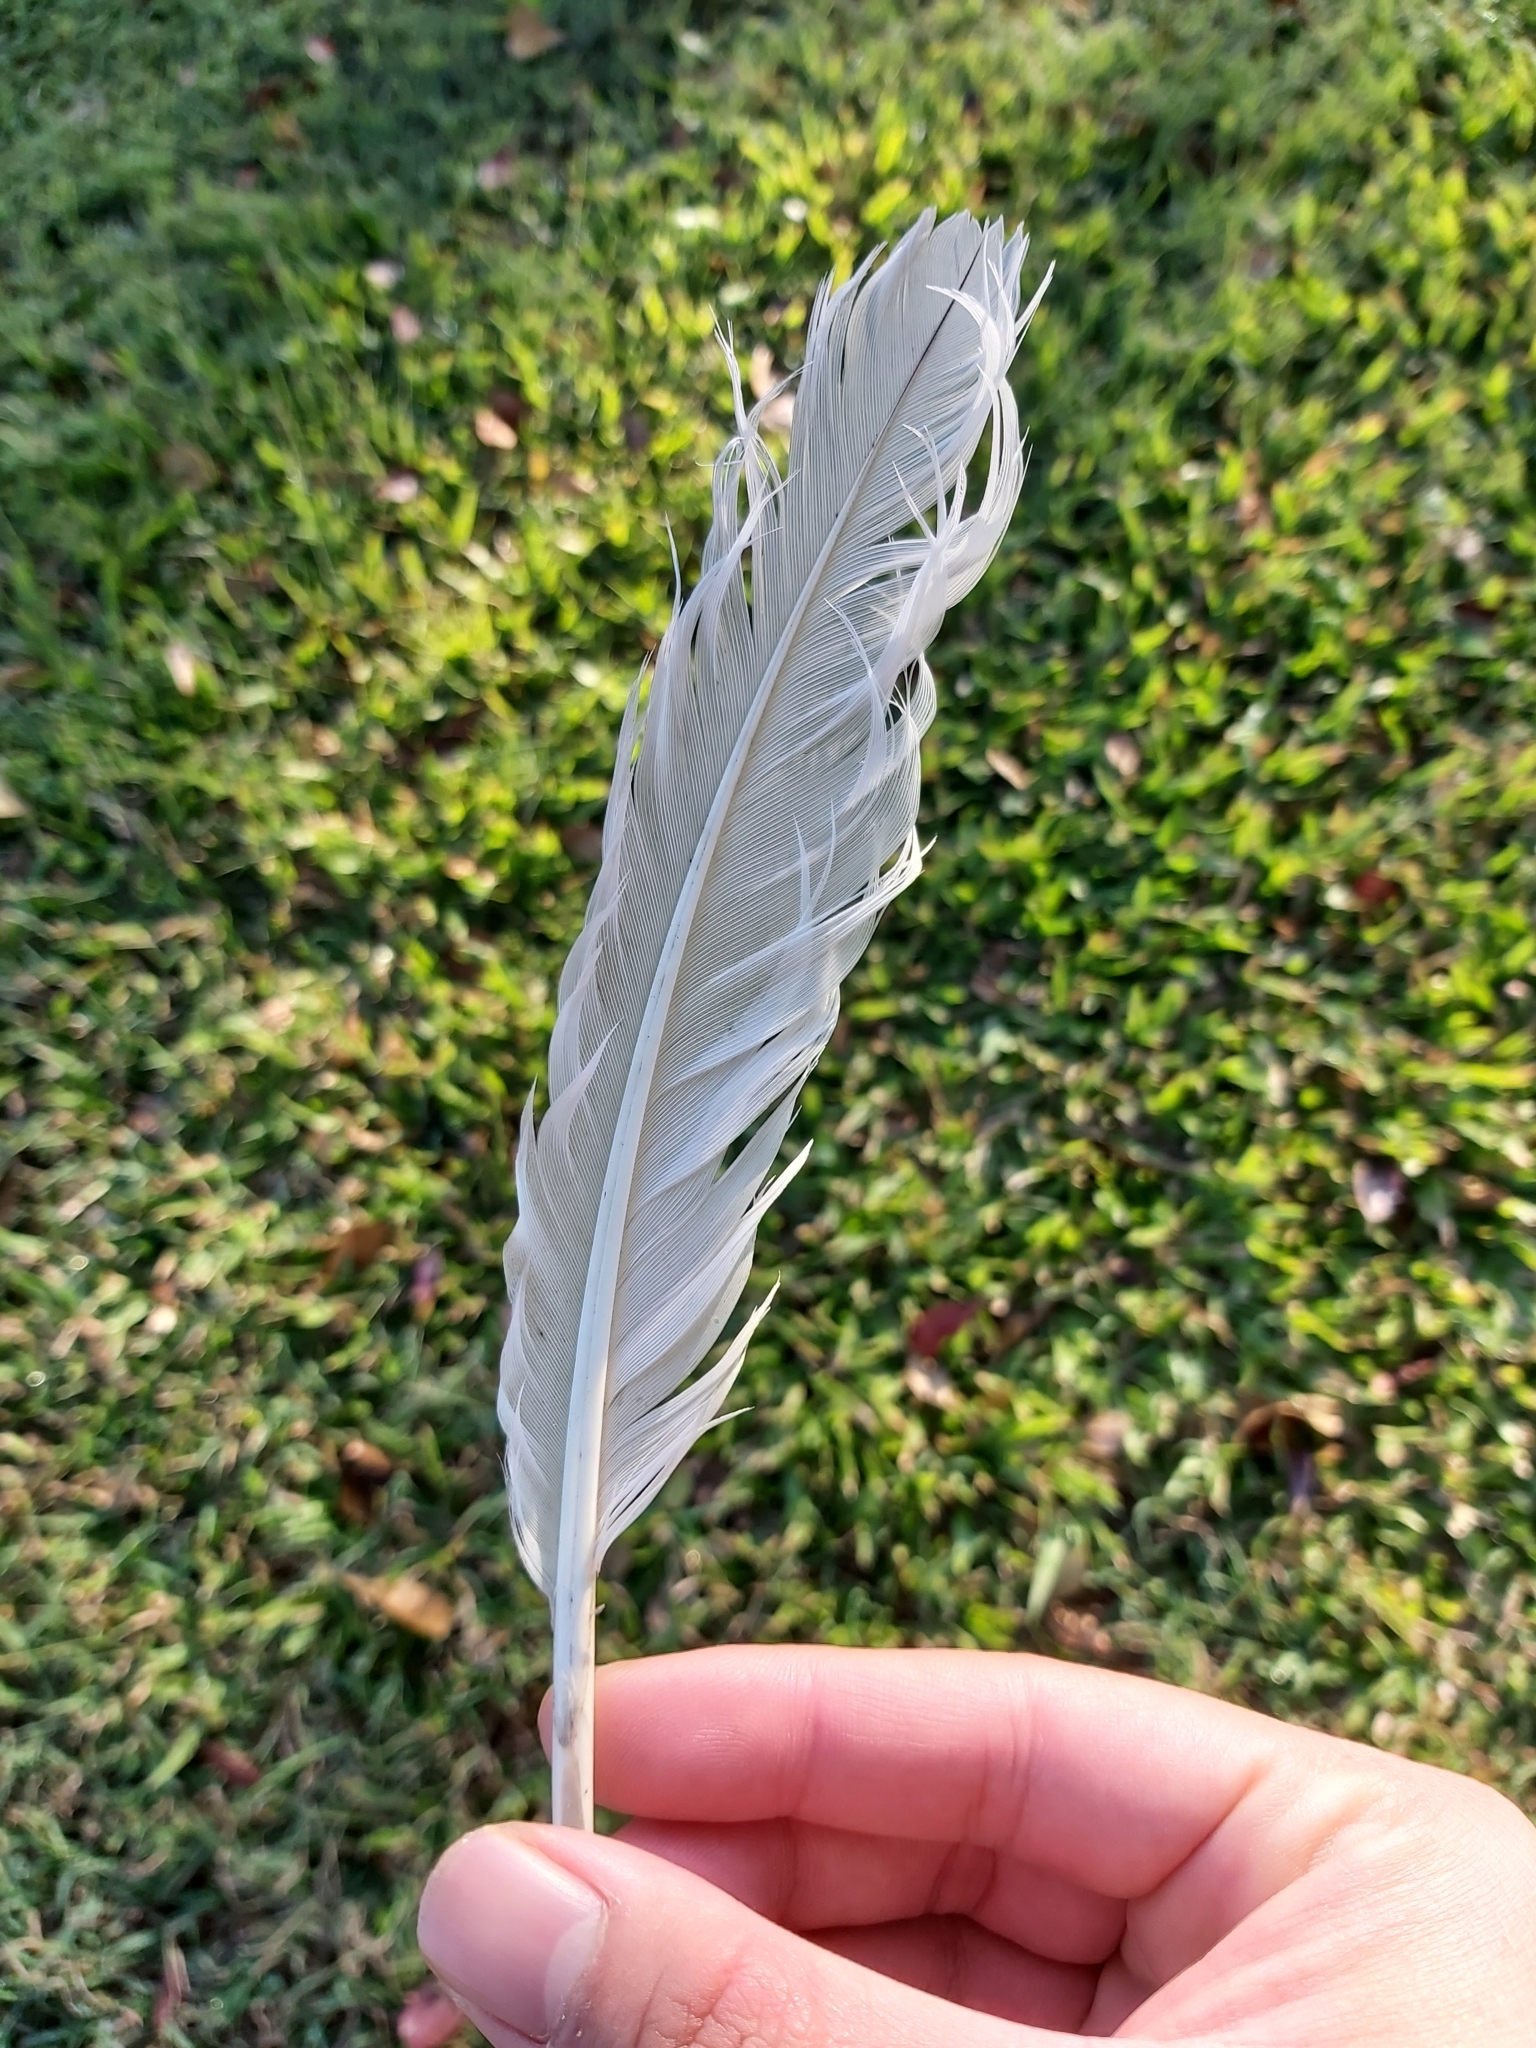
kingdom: Animalia
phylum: Chordata
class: Aves
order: Pelecaniformes
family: Threskiornithidae
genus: Threskiornis
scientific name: Threskiornis molucca
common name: Australian white ibis
